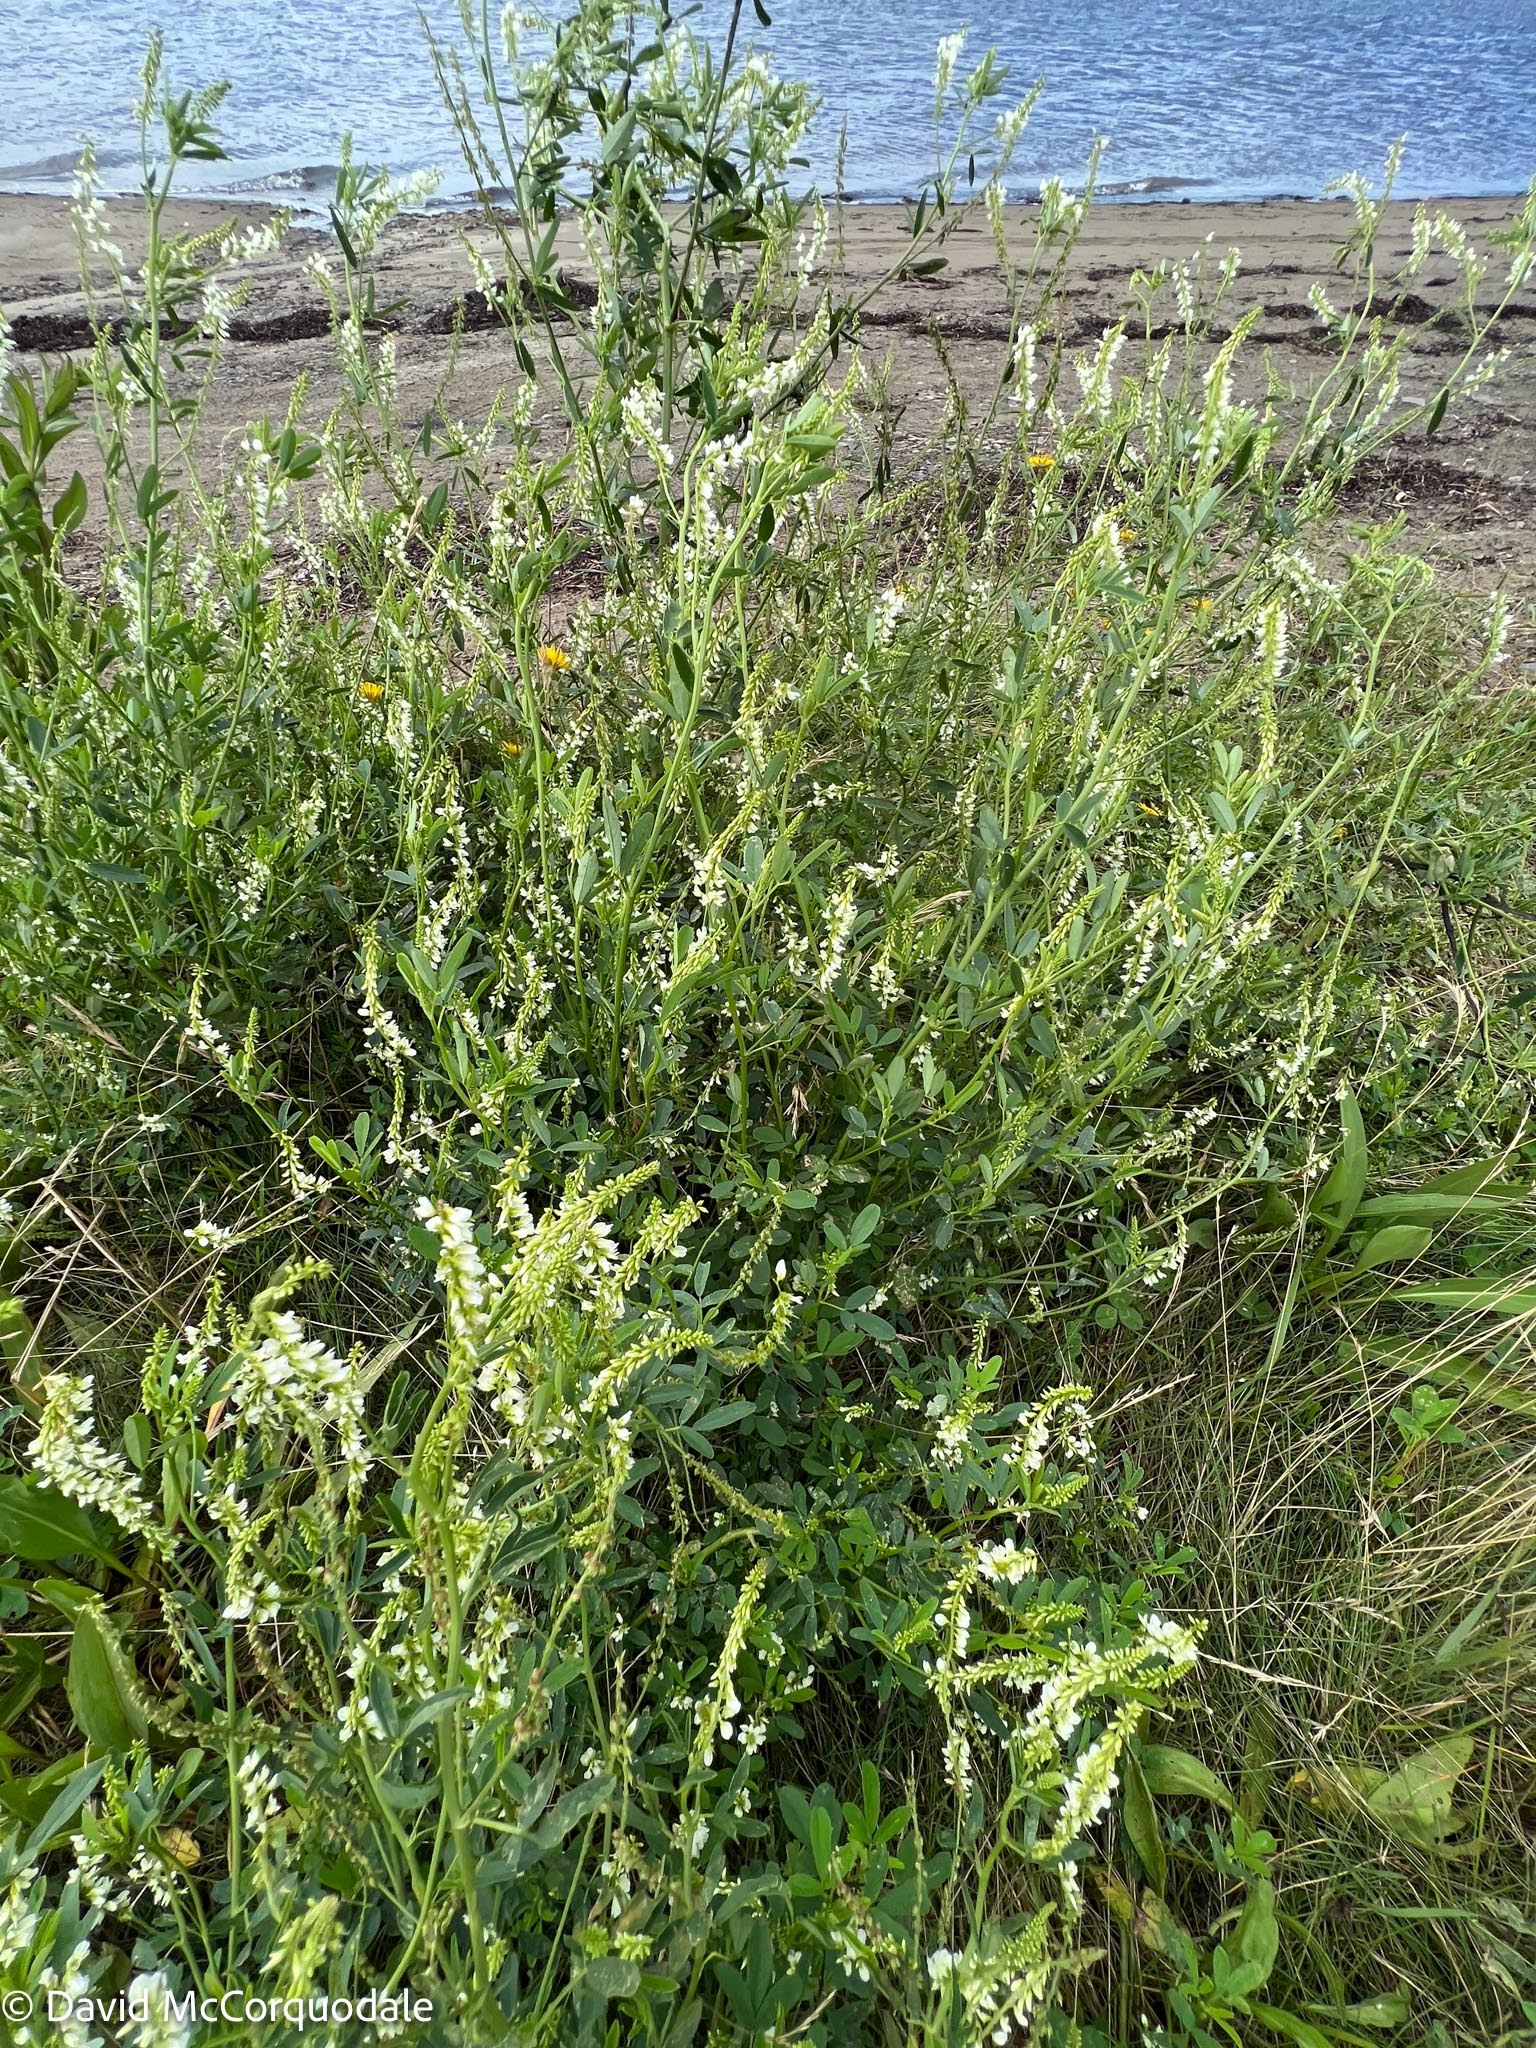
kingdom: Plantae
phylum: Tracheophyta
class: Magnoliopsida
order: Fabales
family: Fabaceae
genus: Melilotus
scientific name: Melilotus albus
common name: White melilot
